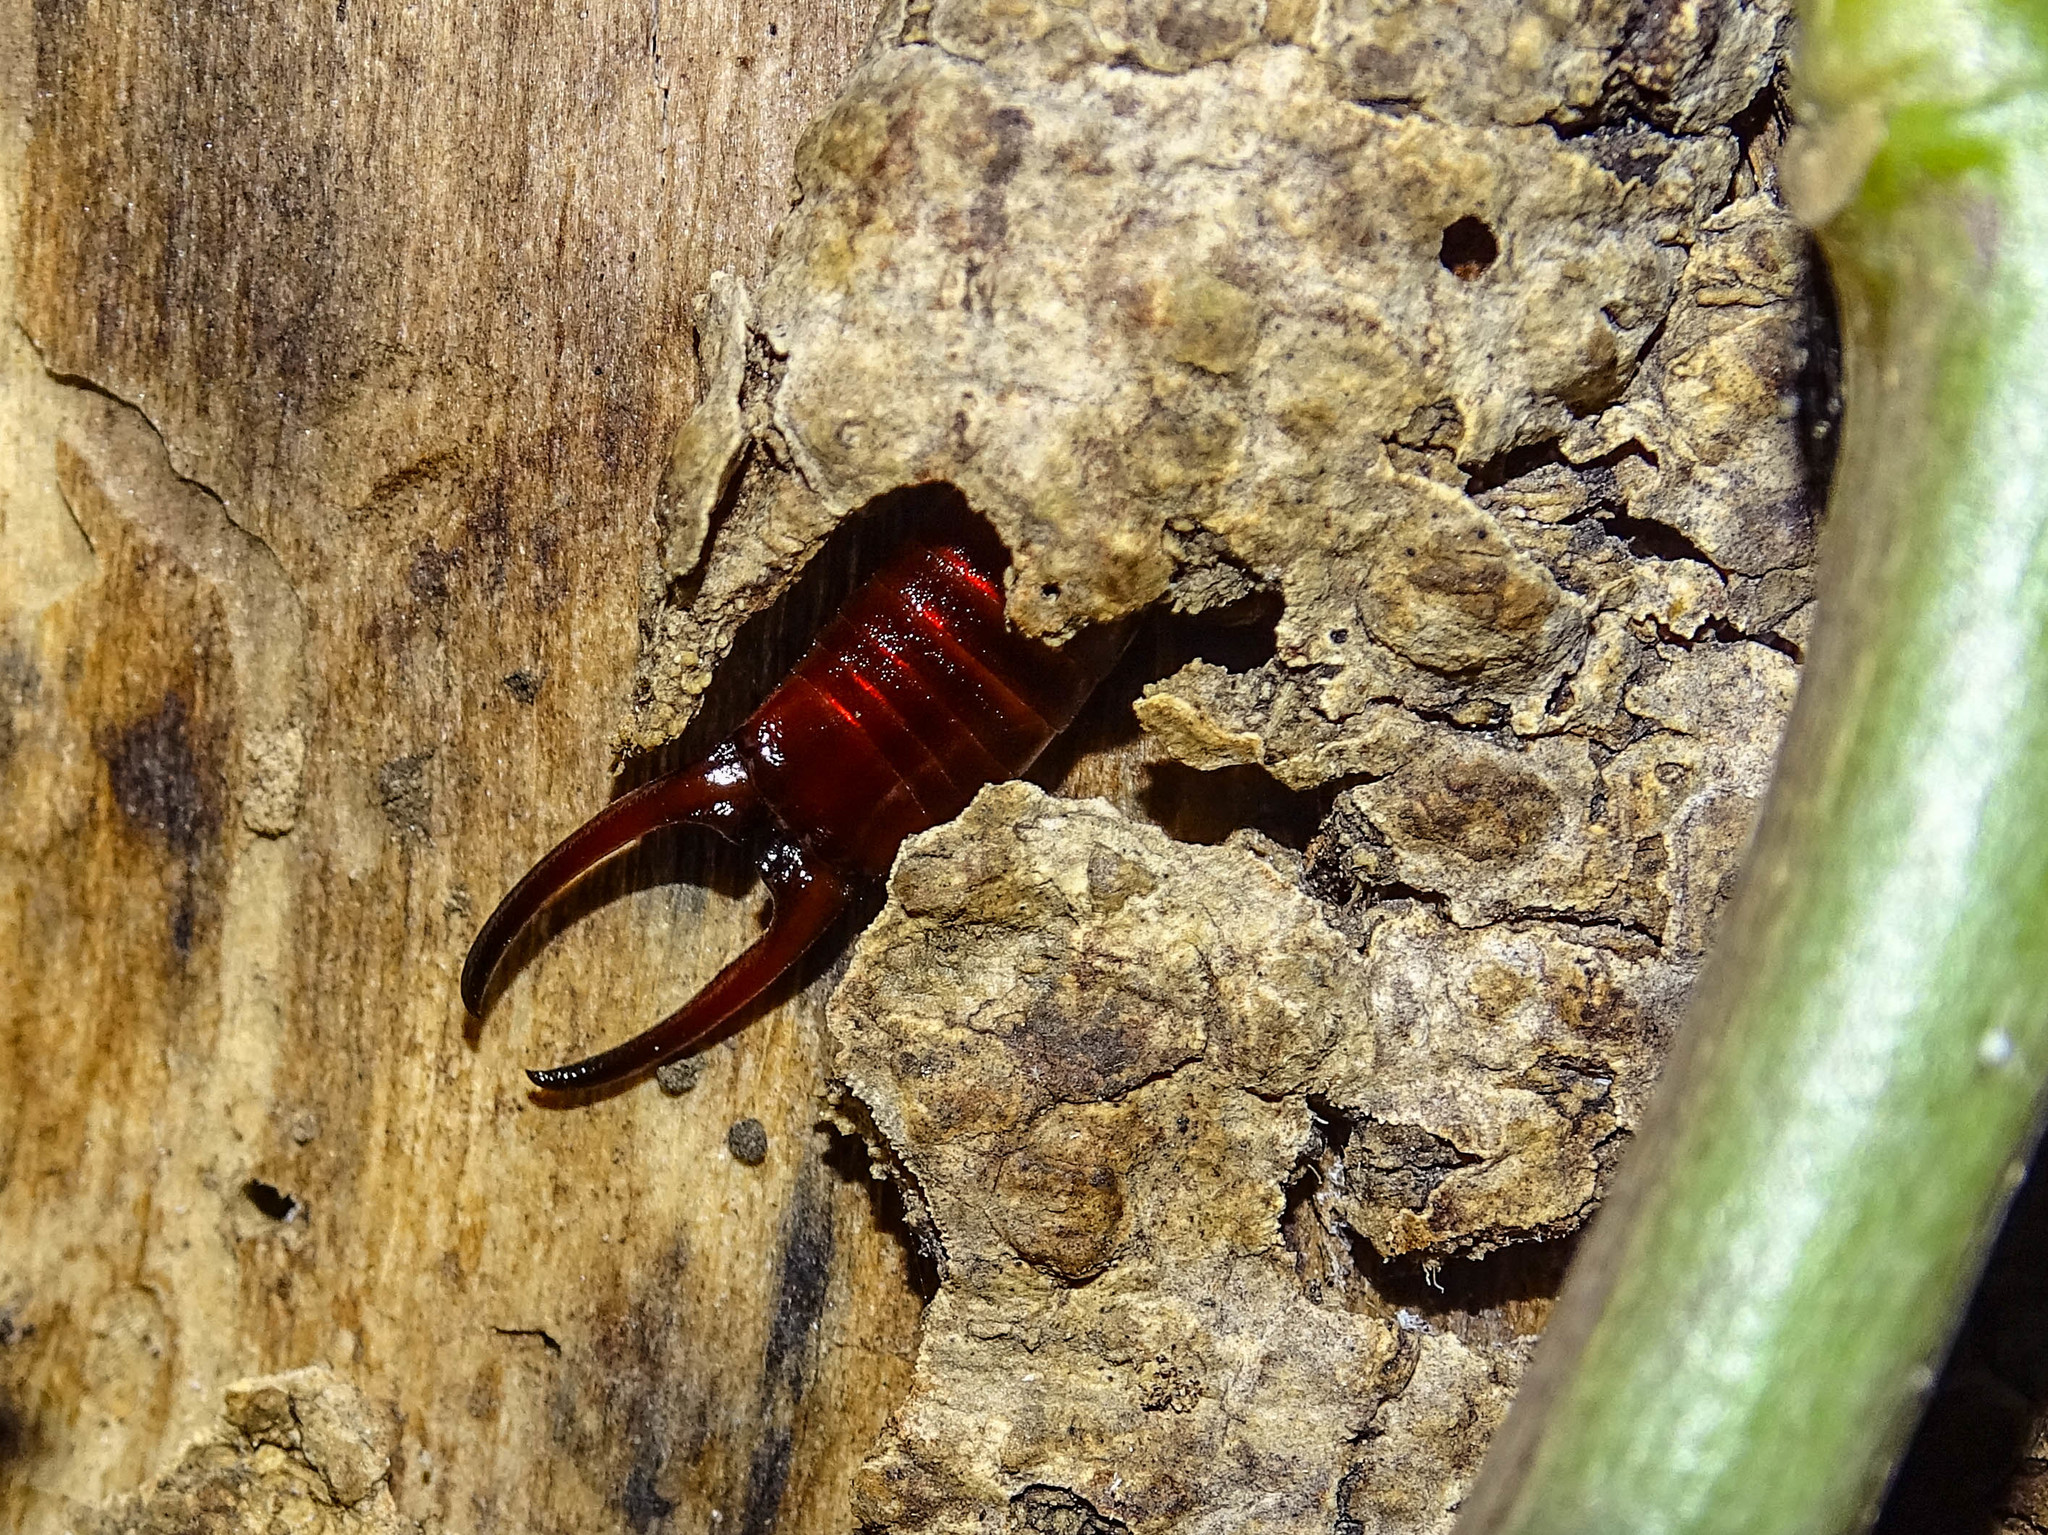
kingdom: Animalia
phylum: Arthropoda
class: Insecta
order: Dermaptera
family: Forficulidae
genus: Forficula
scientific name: Forficula smyrnensis
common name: Smyrna earwig
